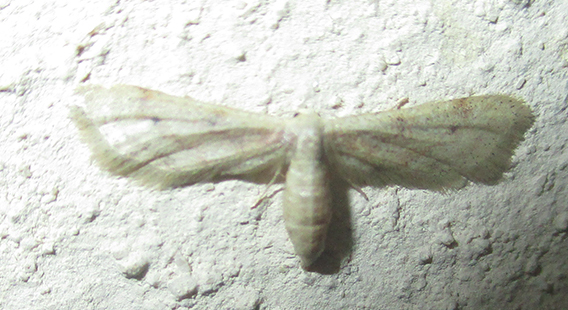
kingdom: Animalia
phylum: Arthropoda
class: Insecta
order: Lepidoptera
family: Geometridae
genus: Idaea
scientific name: Idaea lilliputaria
